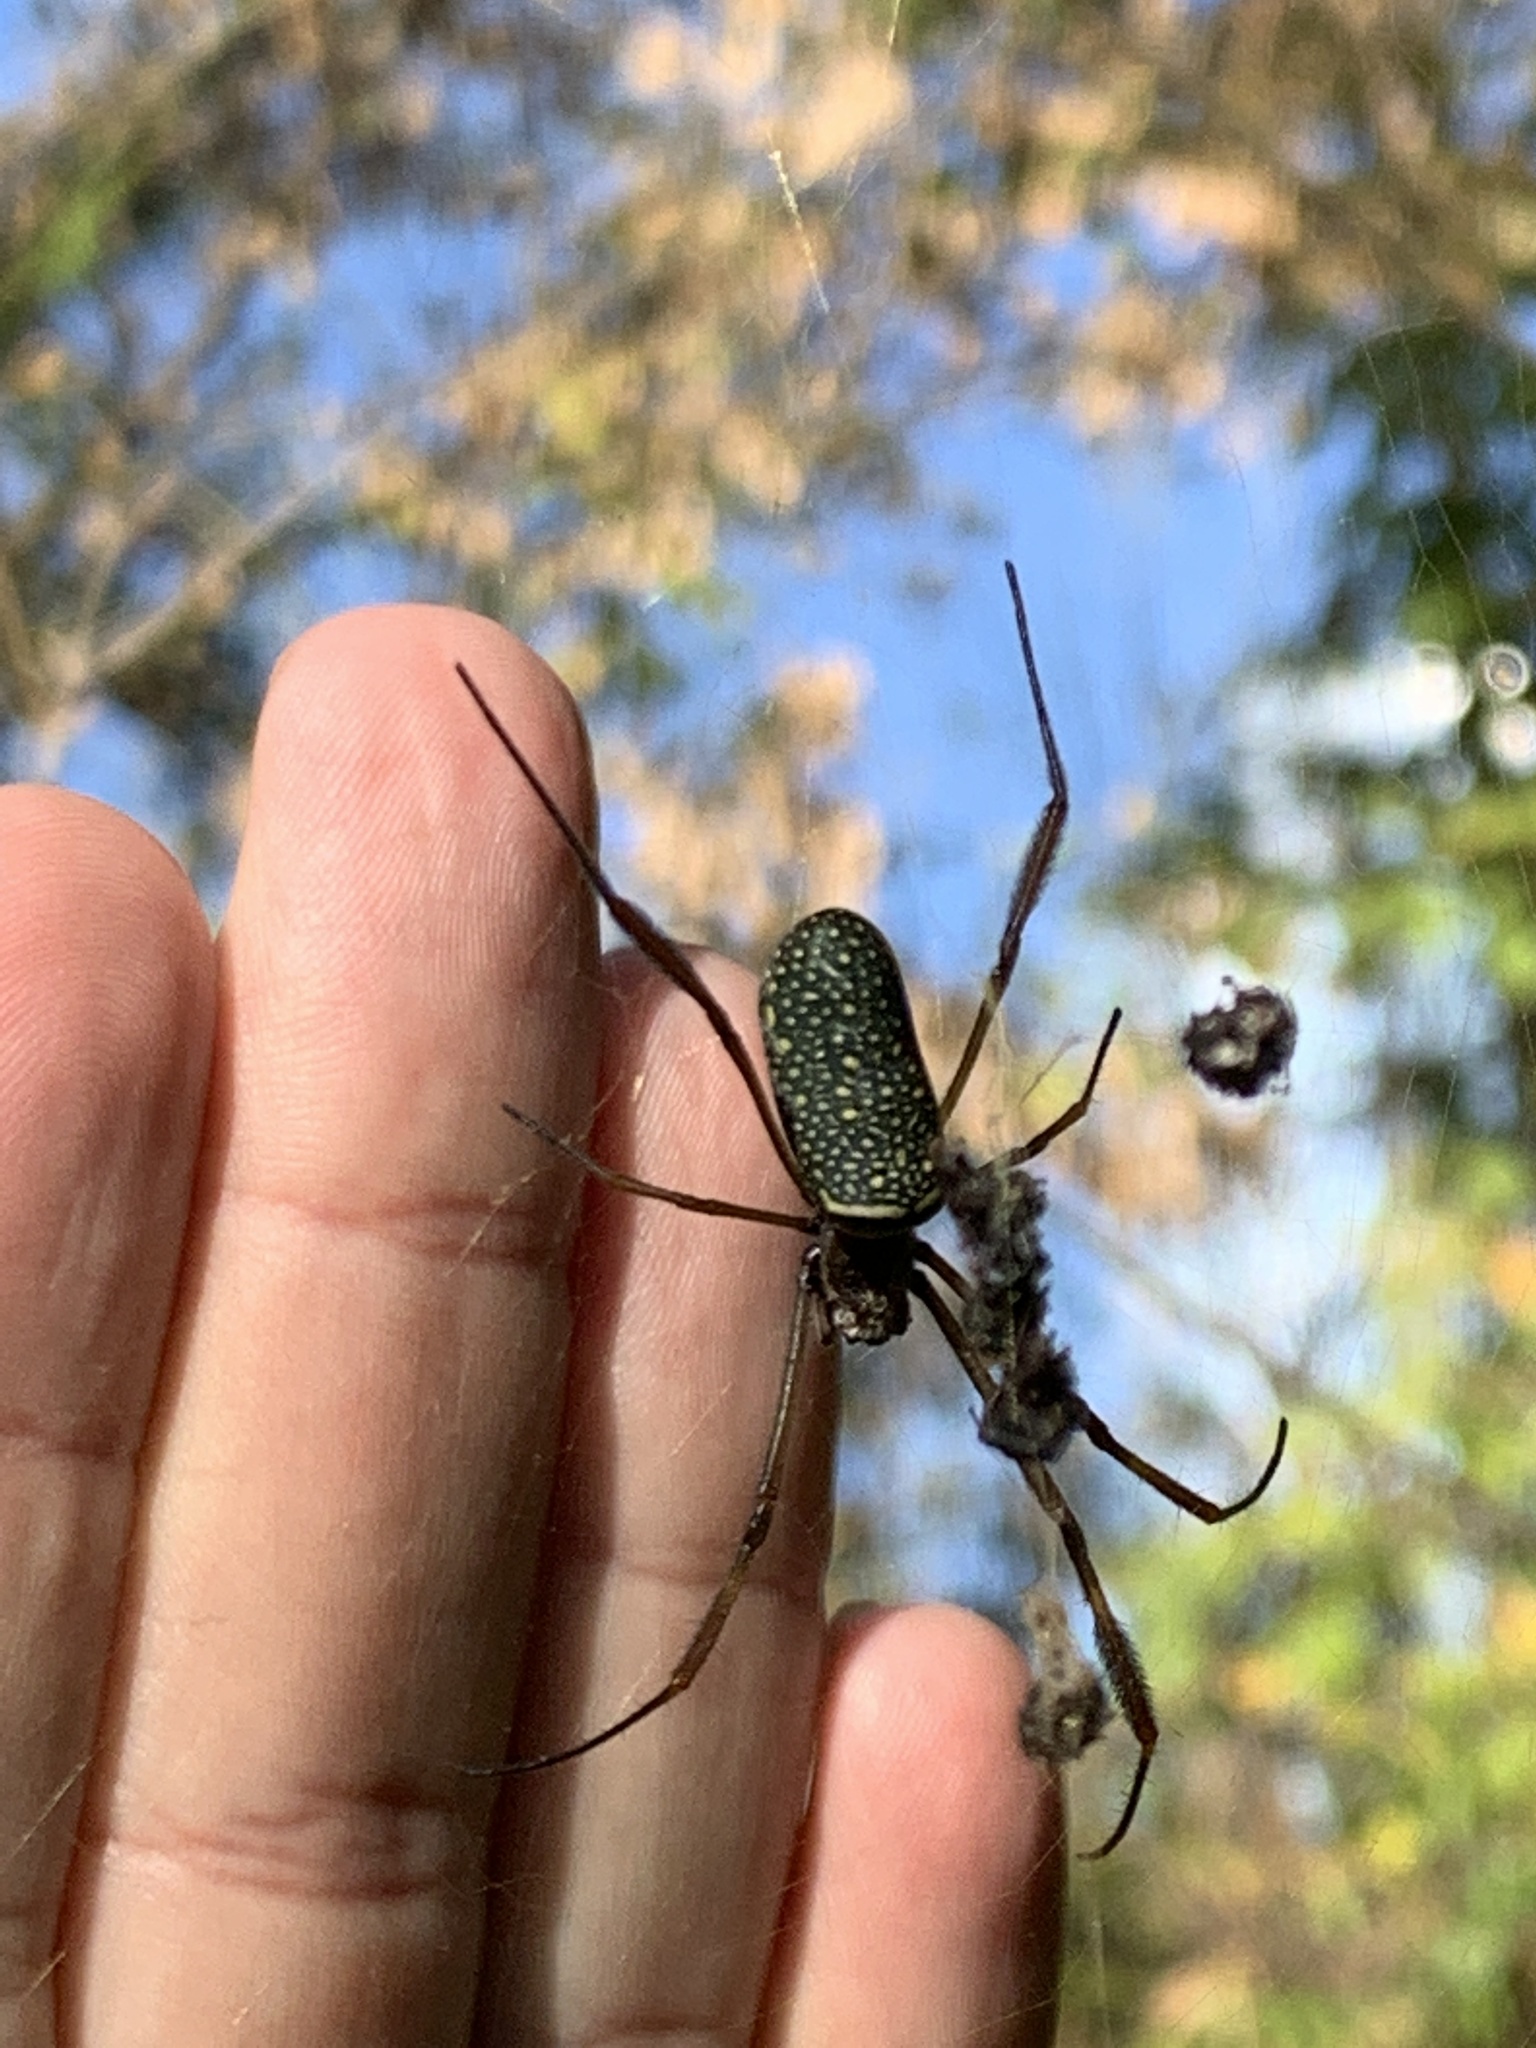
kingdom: Animalia
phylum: Arthropoda
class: Arachnida
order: Araneae
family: Araneidae
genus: Trichonephila
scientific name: Trichonephila clavipes
